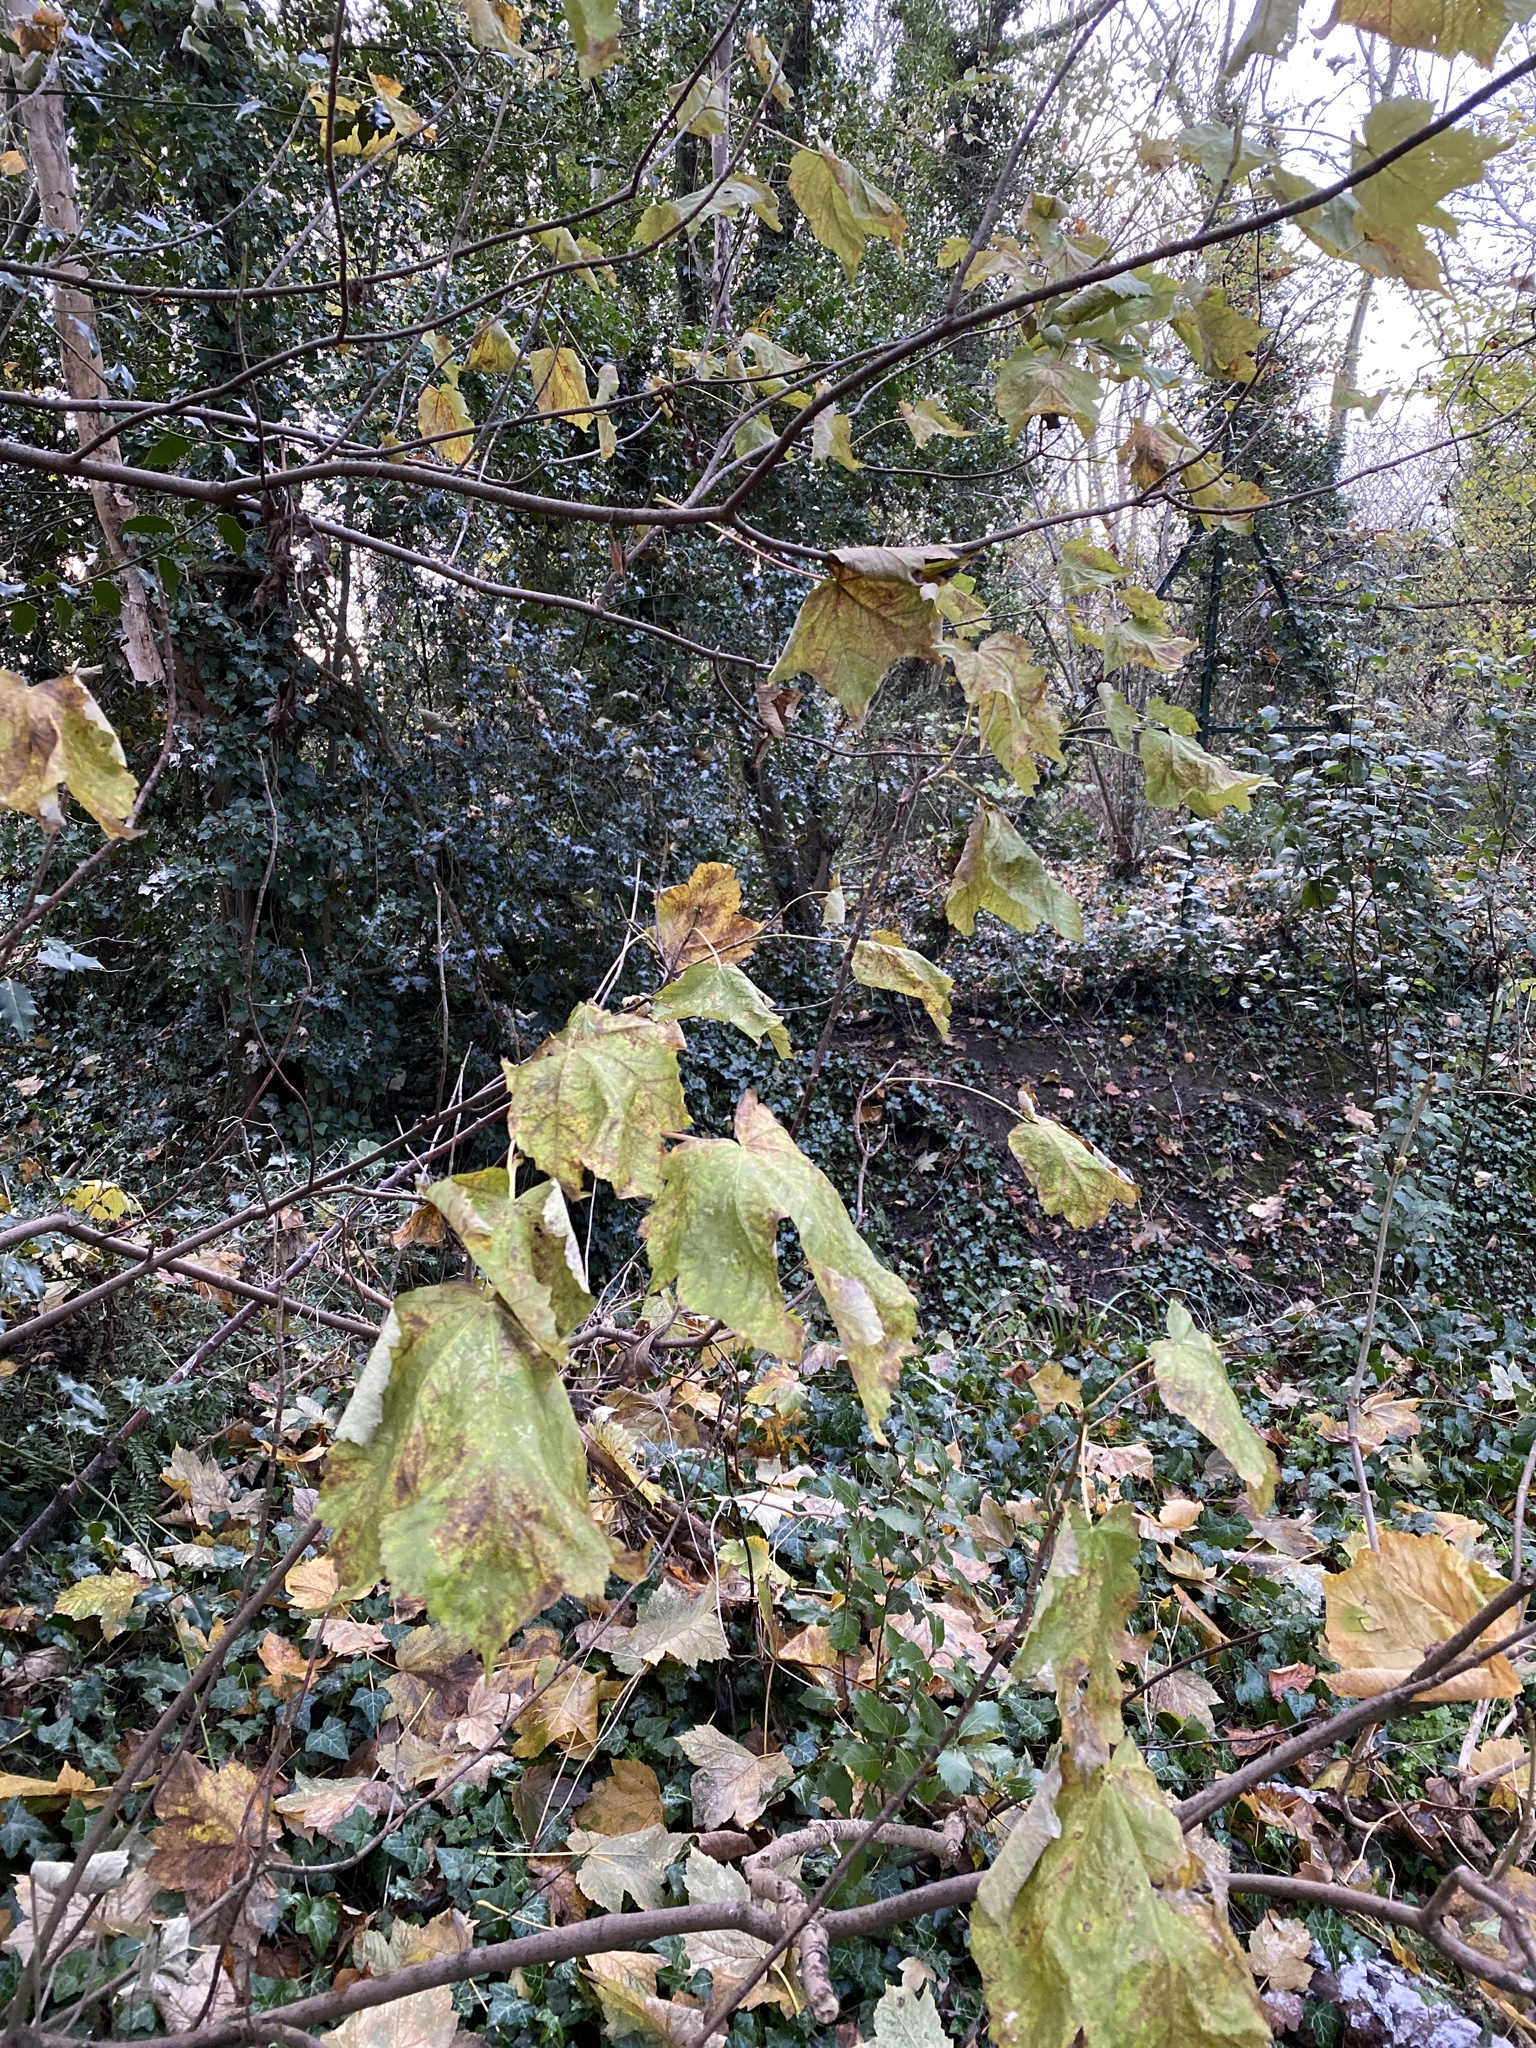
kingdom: Plantae
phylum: Tracheophyta
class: Magnoliopsida
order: Sapindales
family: Sapindaceae
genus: Acer
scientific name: Acer pseudoplatanus
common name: Sycamore
